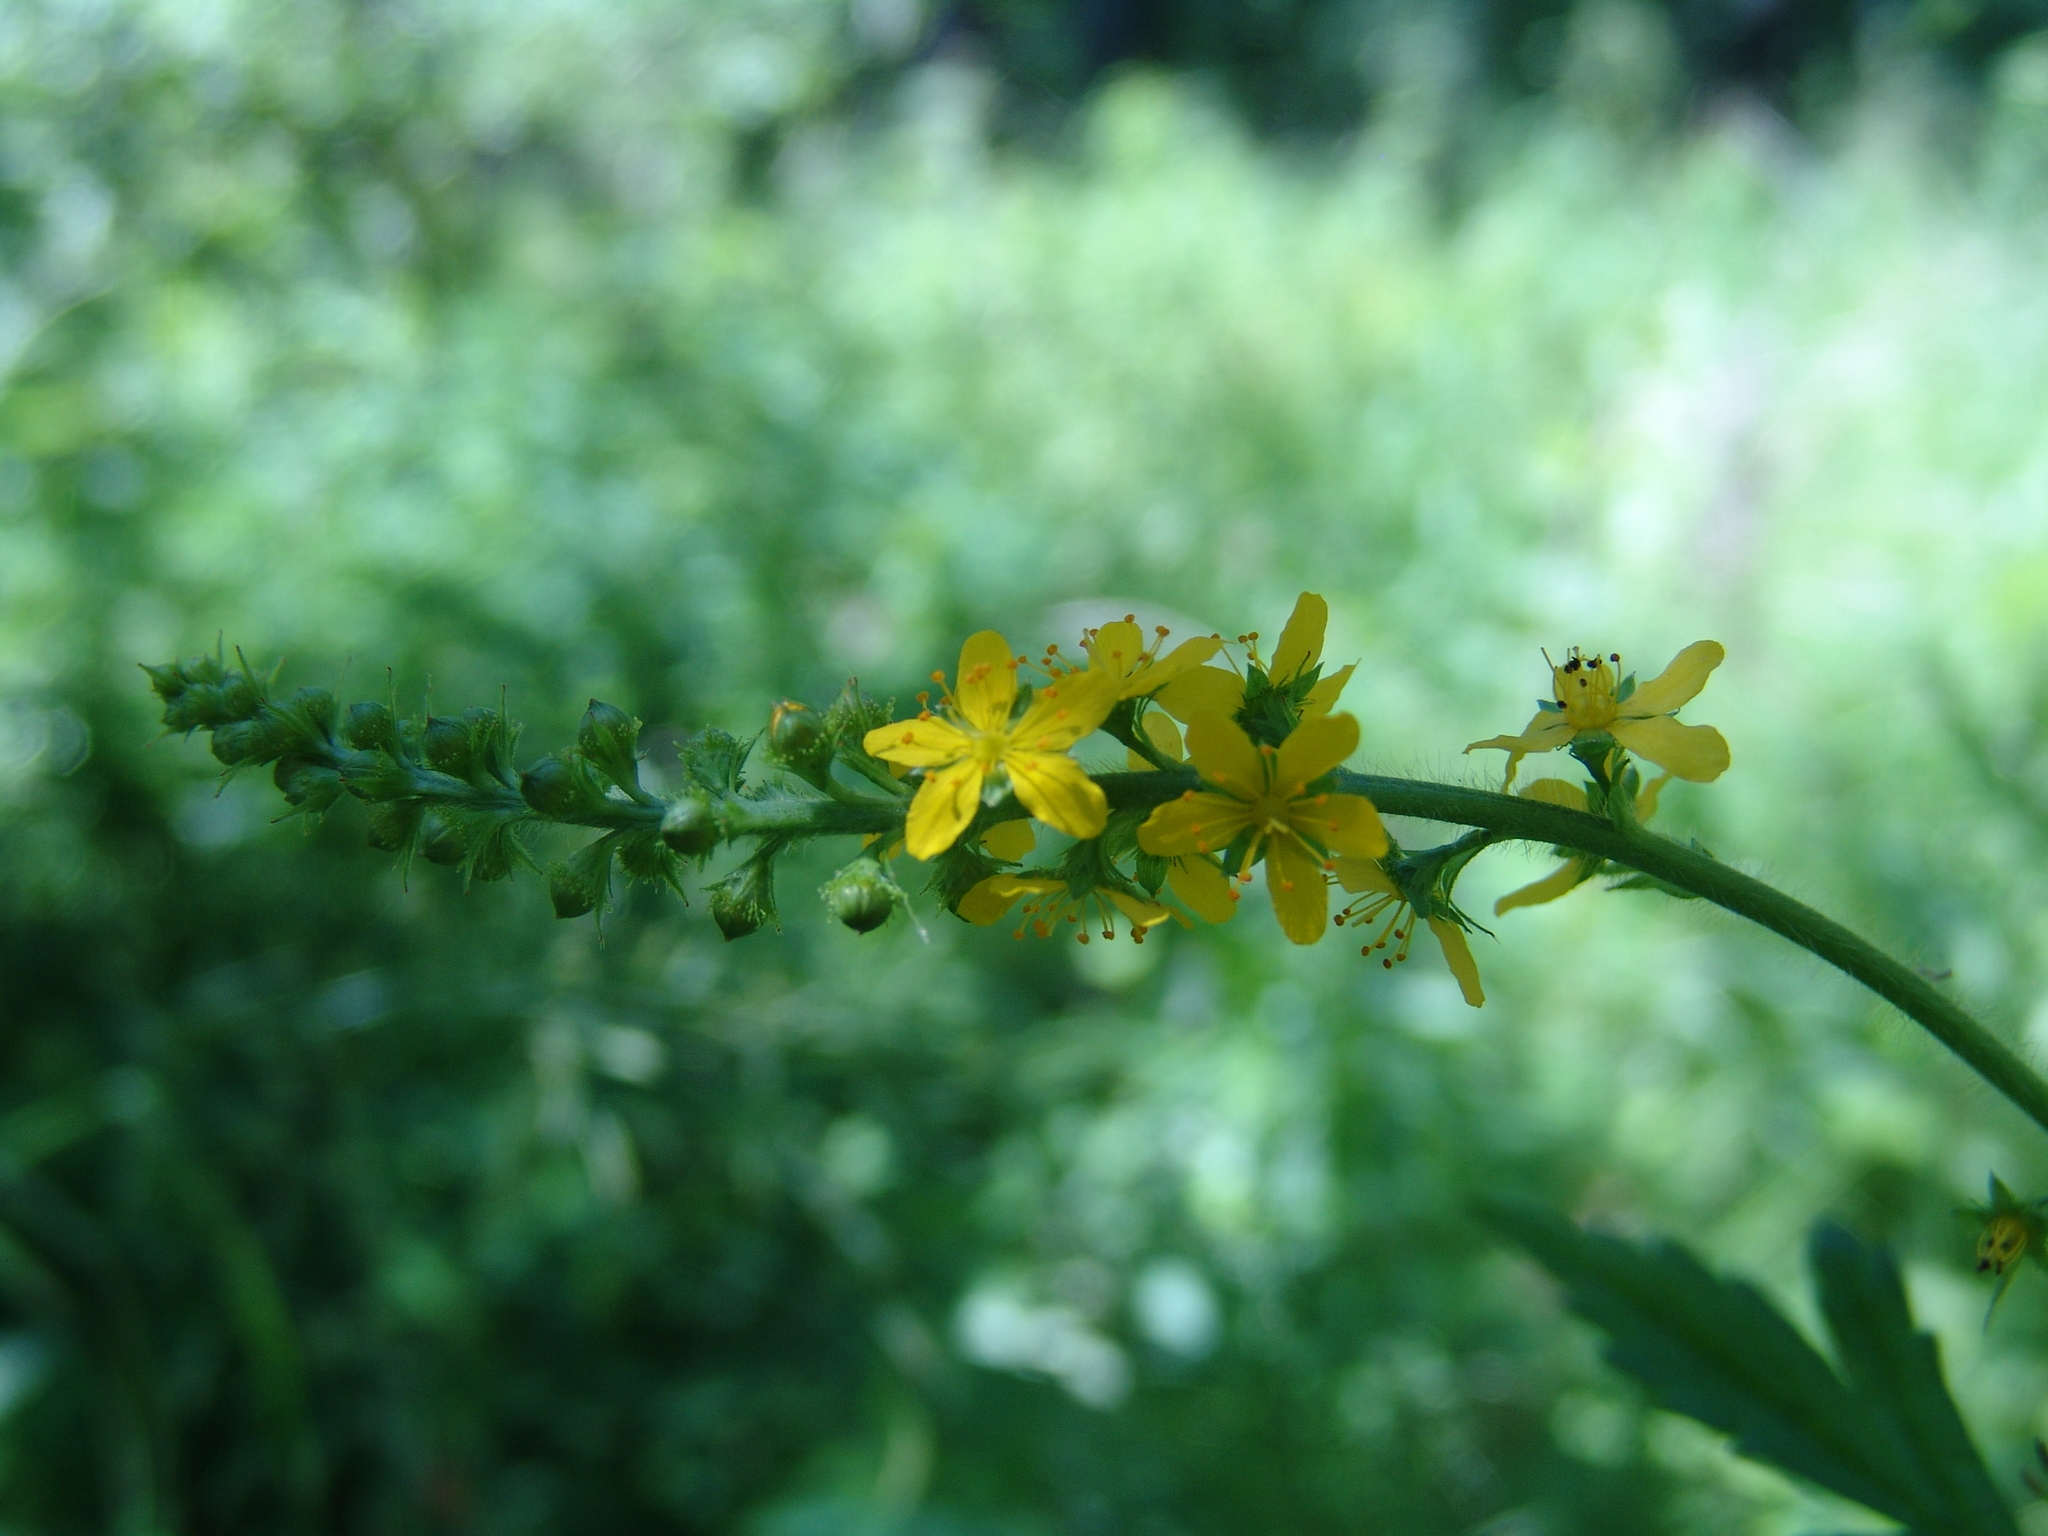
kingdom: Plantae
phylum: Tracheophyta
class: Magnoliopsida
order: Rosales
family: Rosaceae
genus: Agrimonia
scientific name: Agrimonia pilosa
